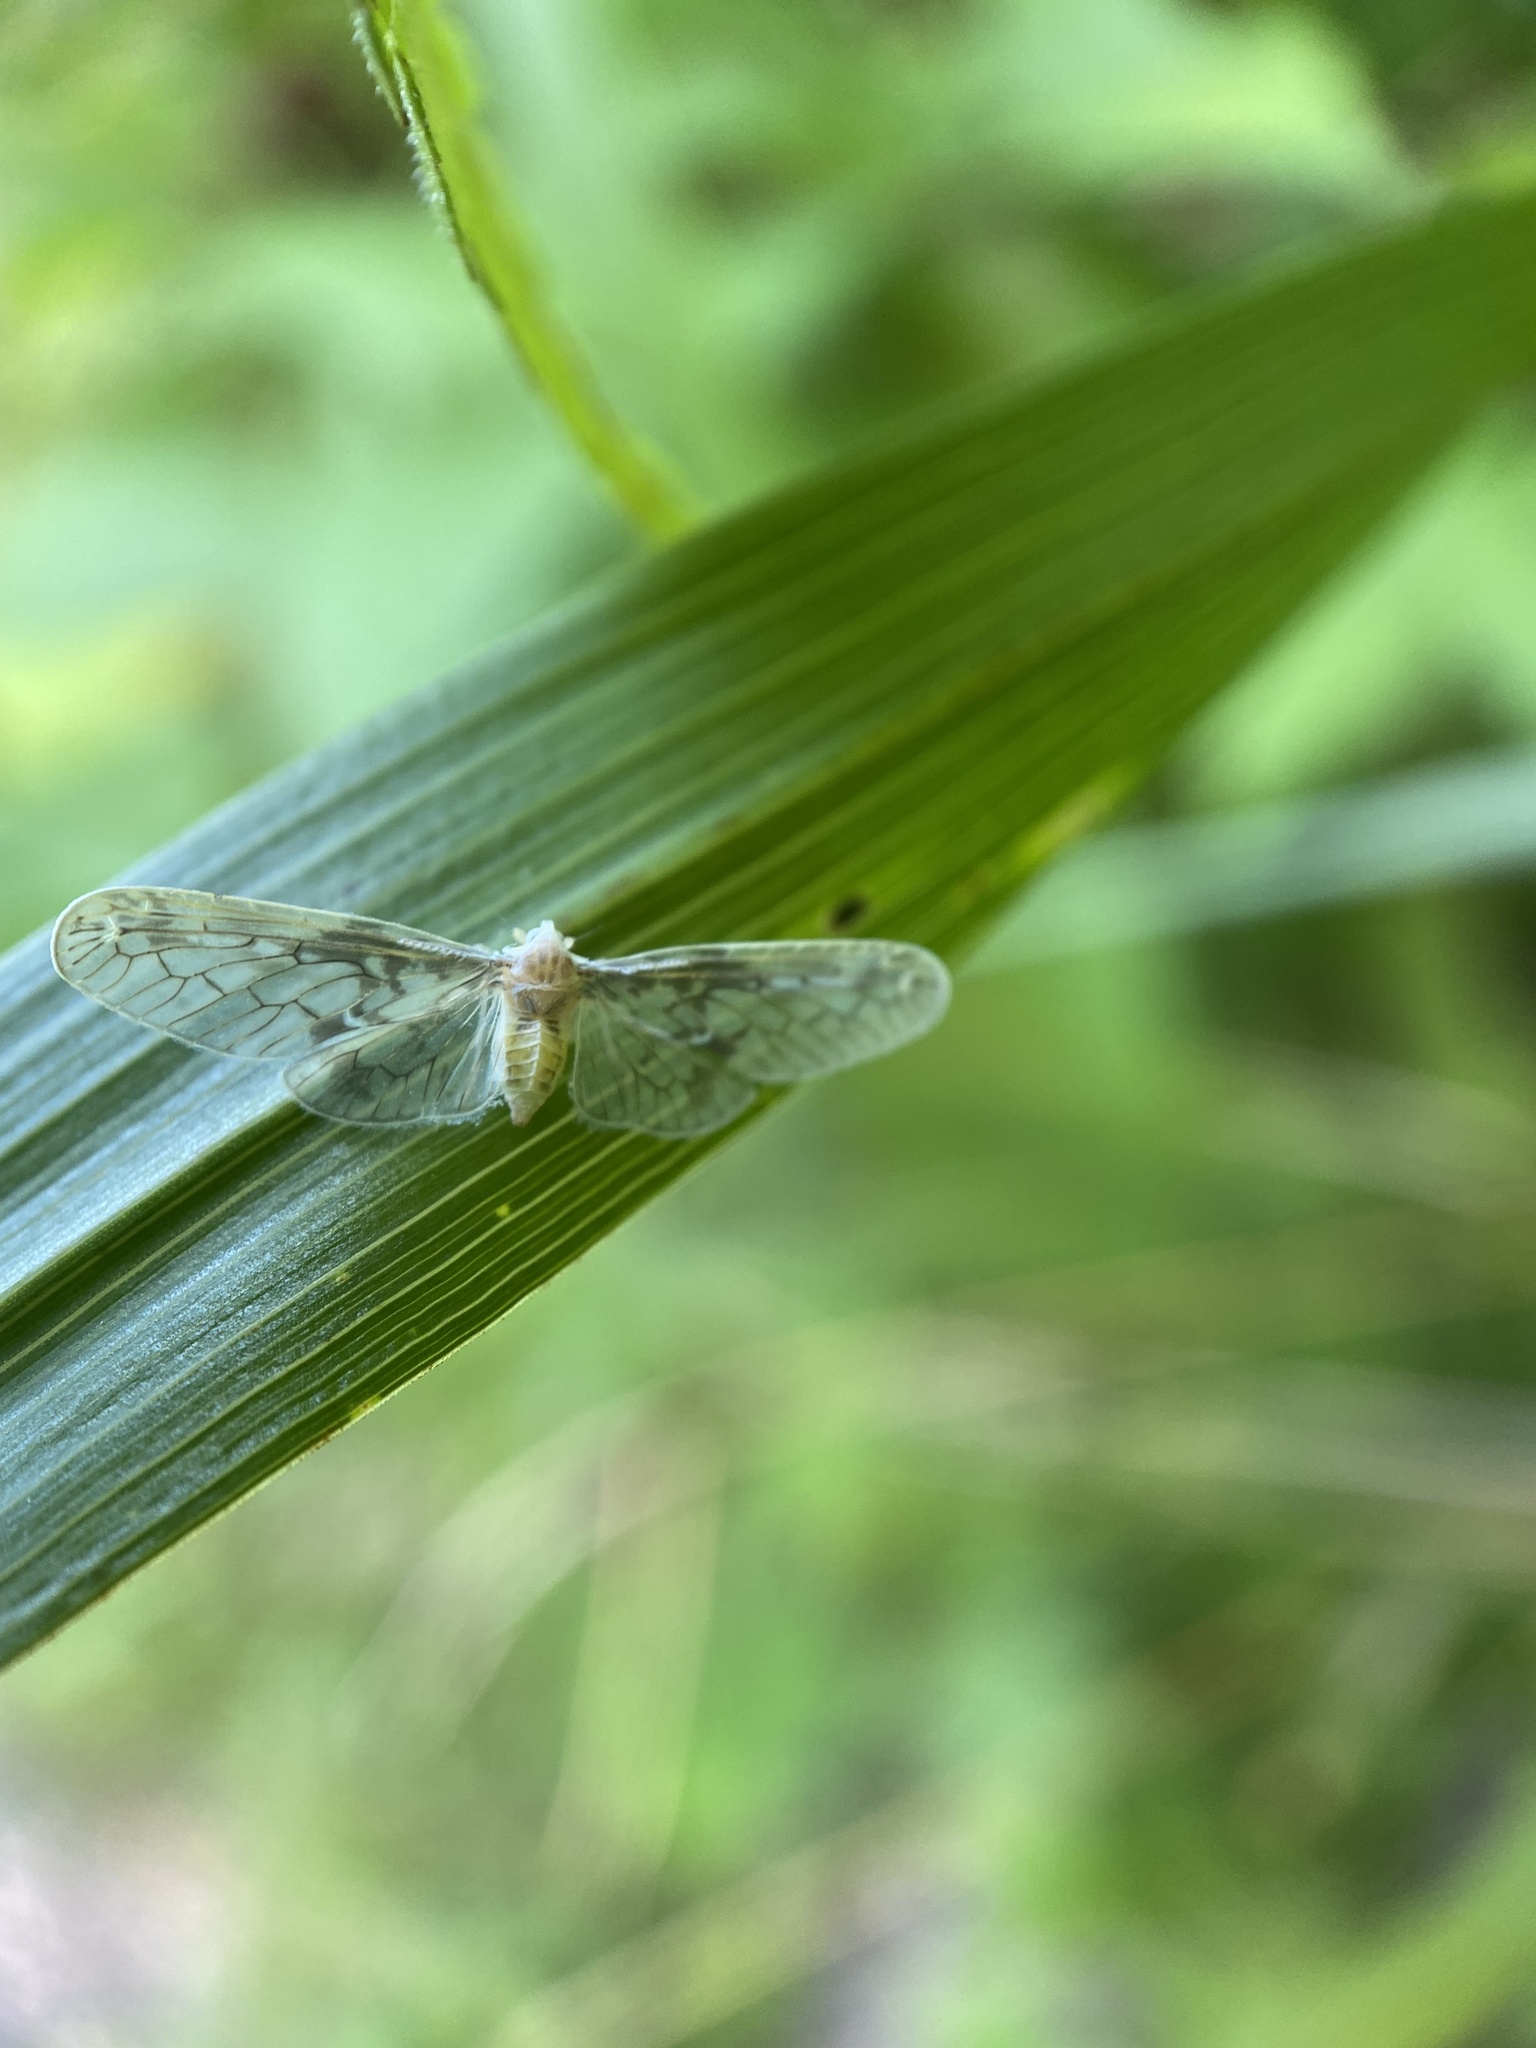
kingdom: Animalia
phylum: Arthropoda
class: Insecta
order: Hemiptera
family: Derbidae
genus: Paramysidia
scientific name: Paramysidia mississippiensis
